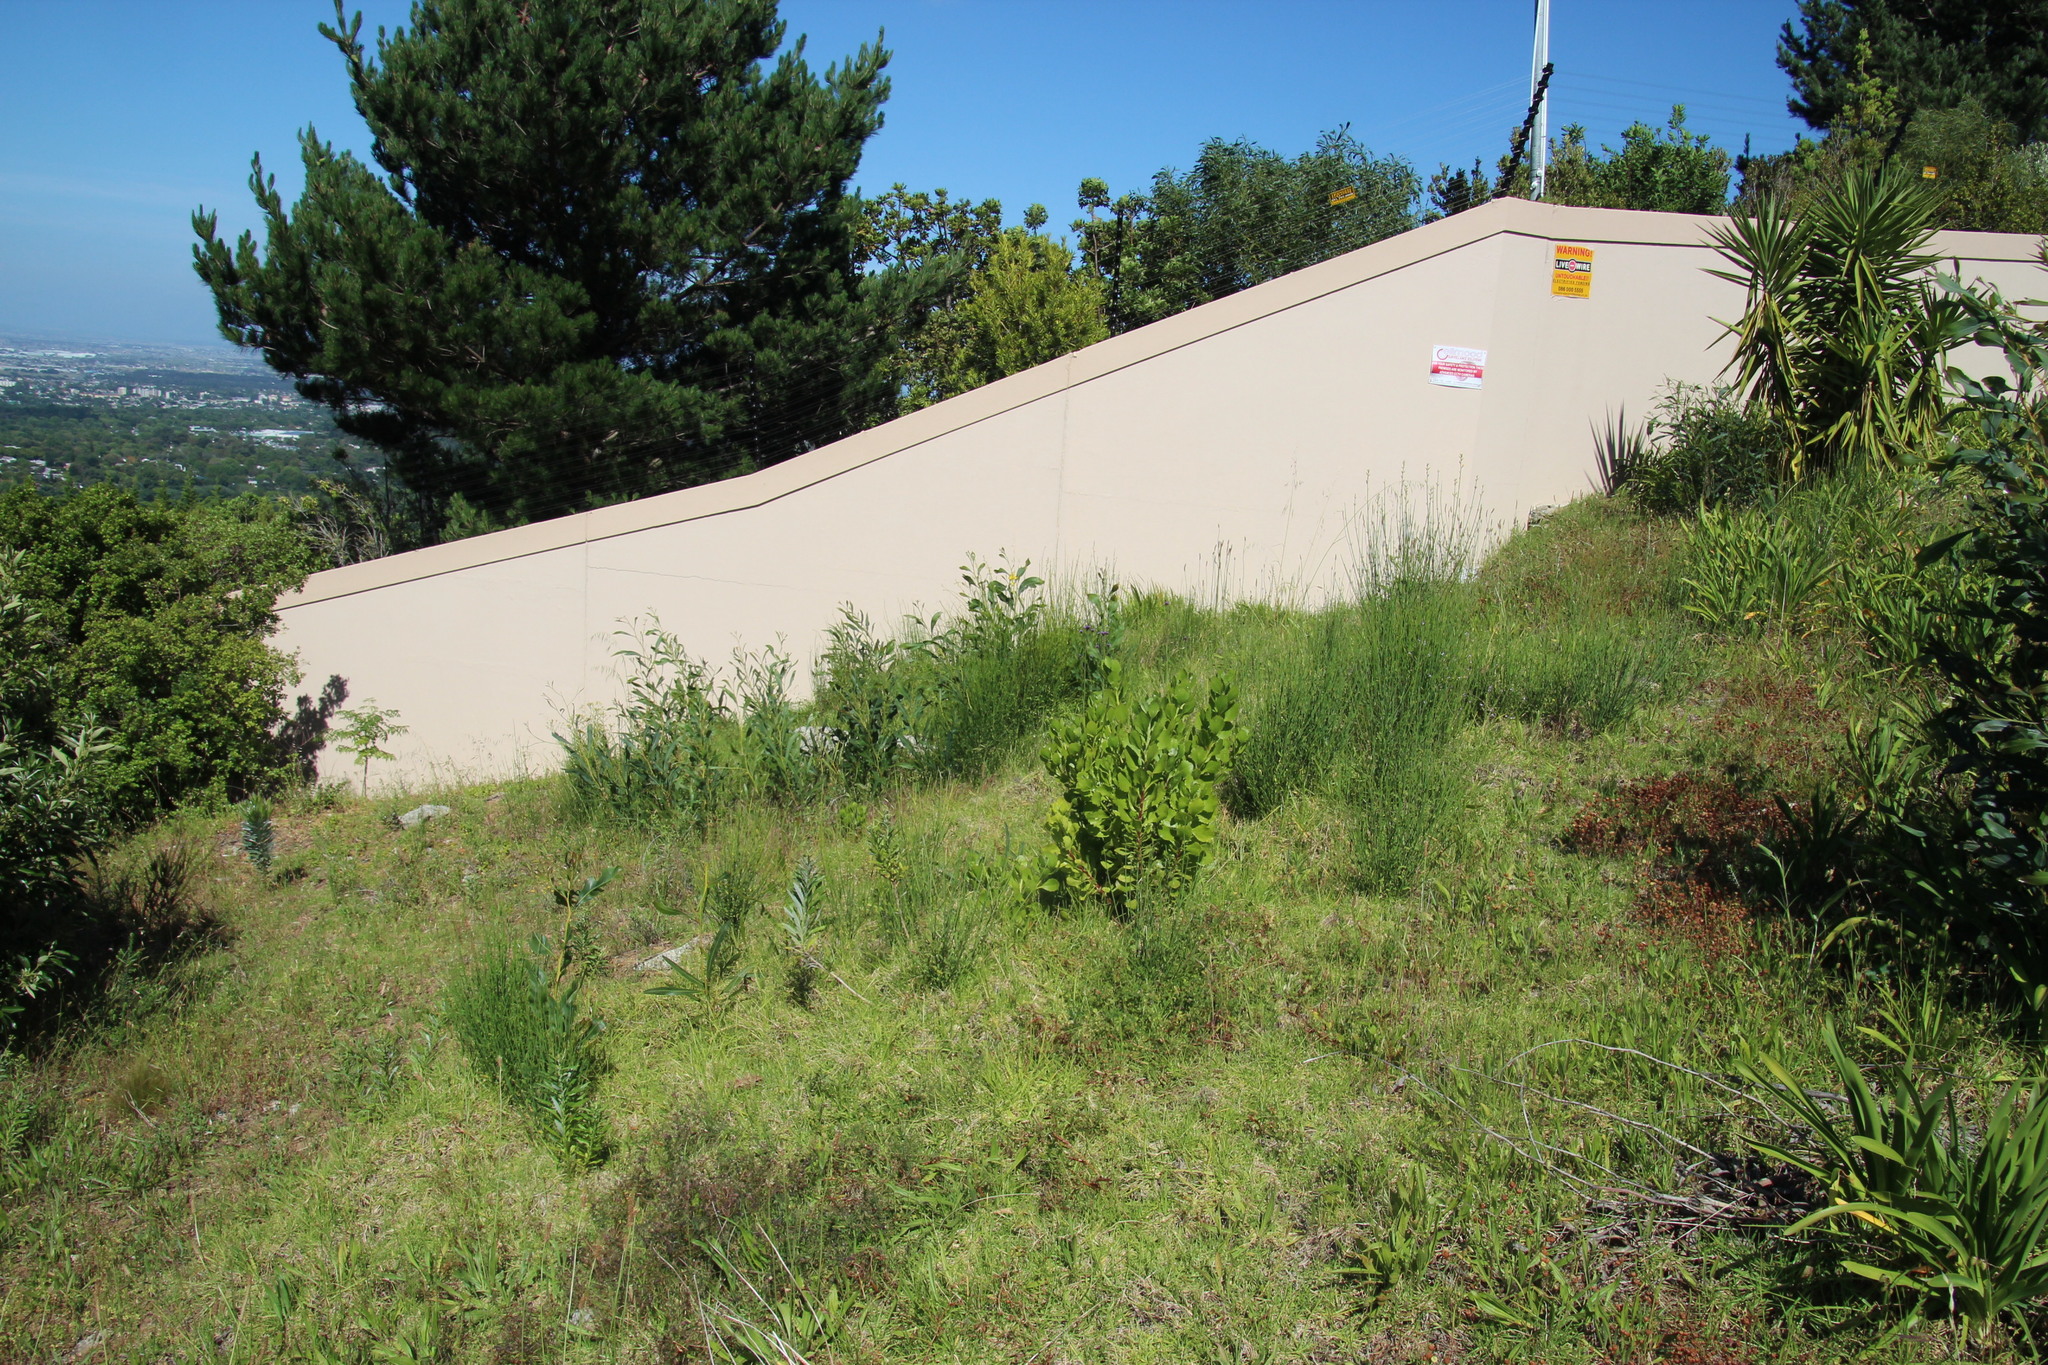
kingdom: Plantae
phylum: Tracheophyta
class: Magnoliopsida
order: Fabales
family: Fabaceae
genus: Spartium
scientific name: Spartium junceum
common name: Spanish broom
